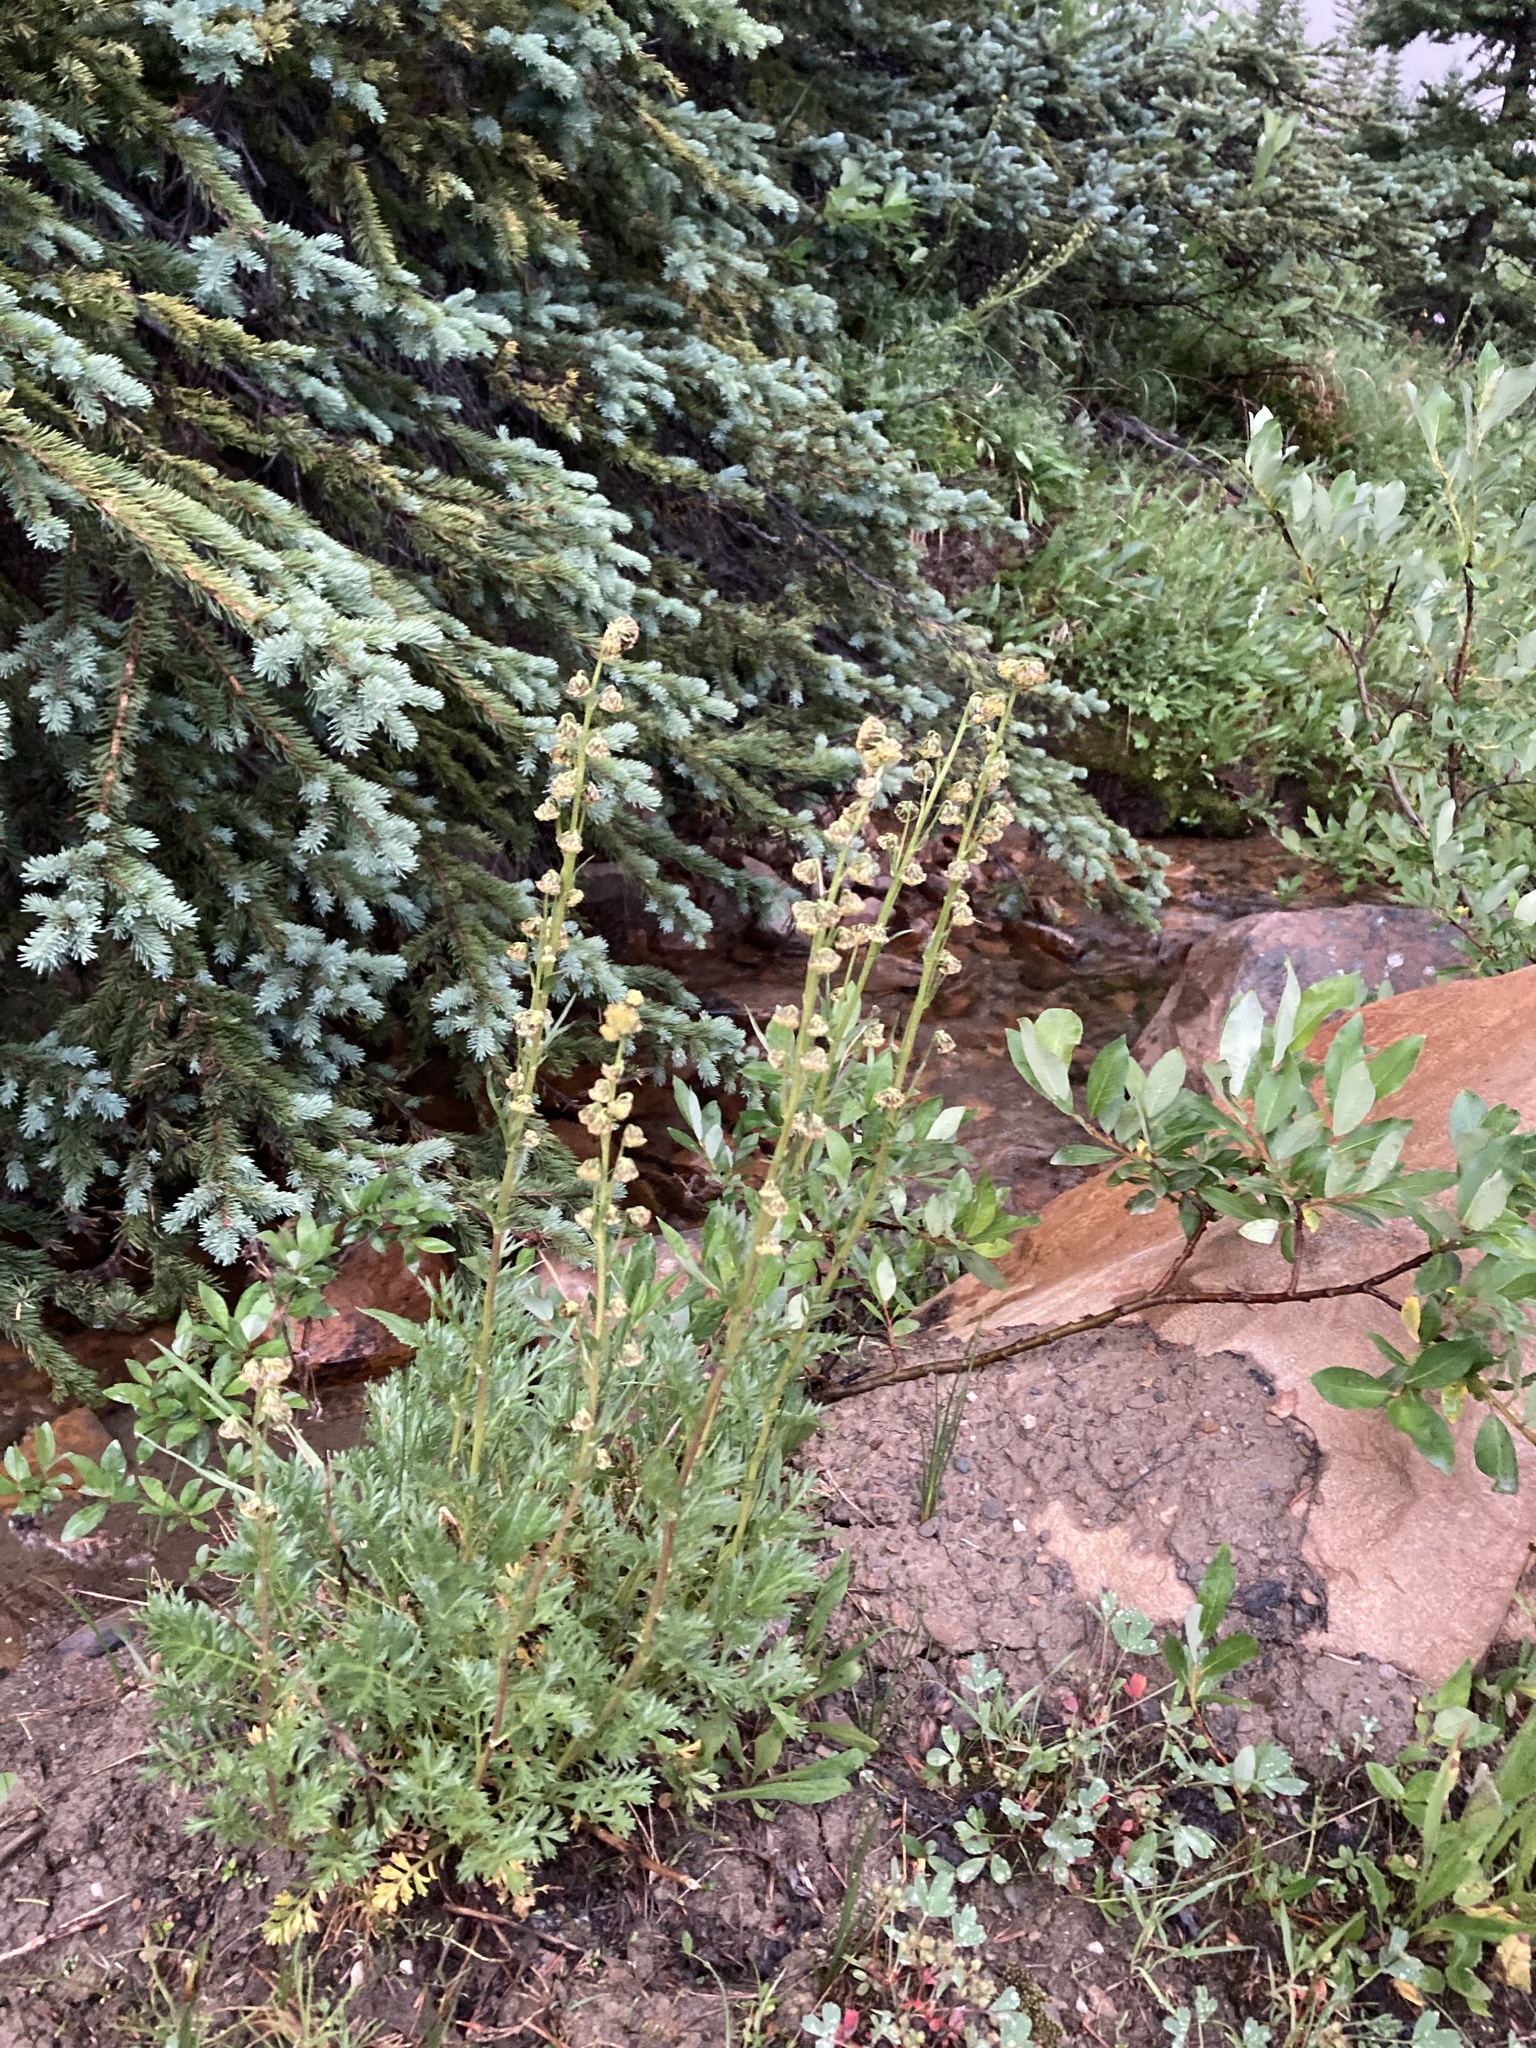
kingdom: Plantae
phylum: Tracheophyta
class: Magnoliopsida
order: Asterales
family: Asteraceae
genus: Artemisia
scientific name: Artemisia norvegica
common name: Norwegian mugwort
